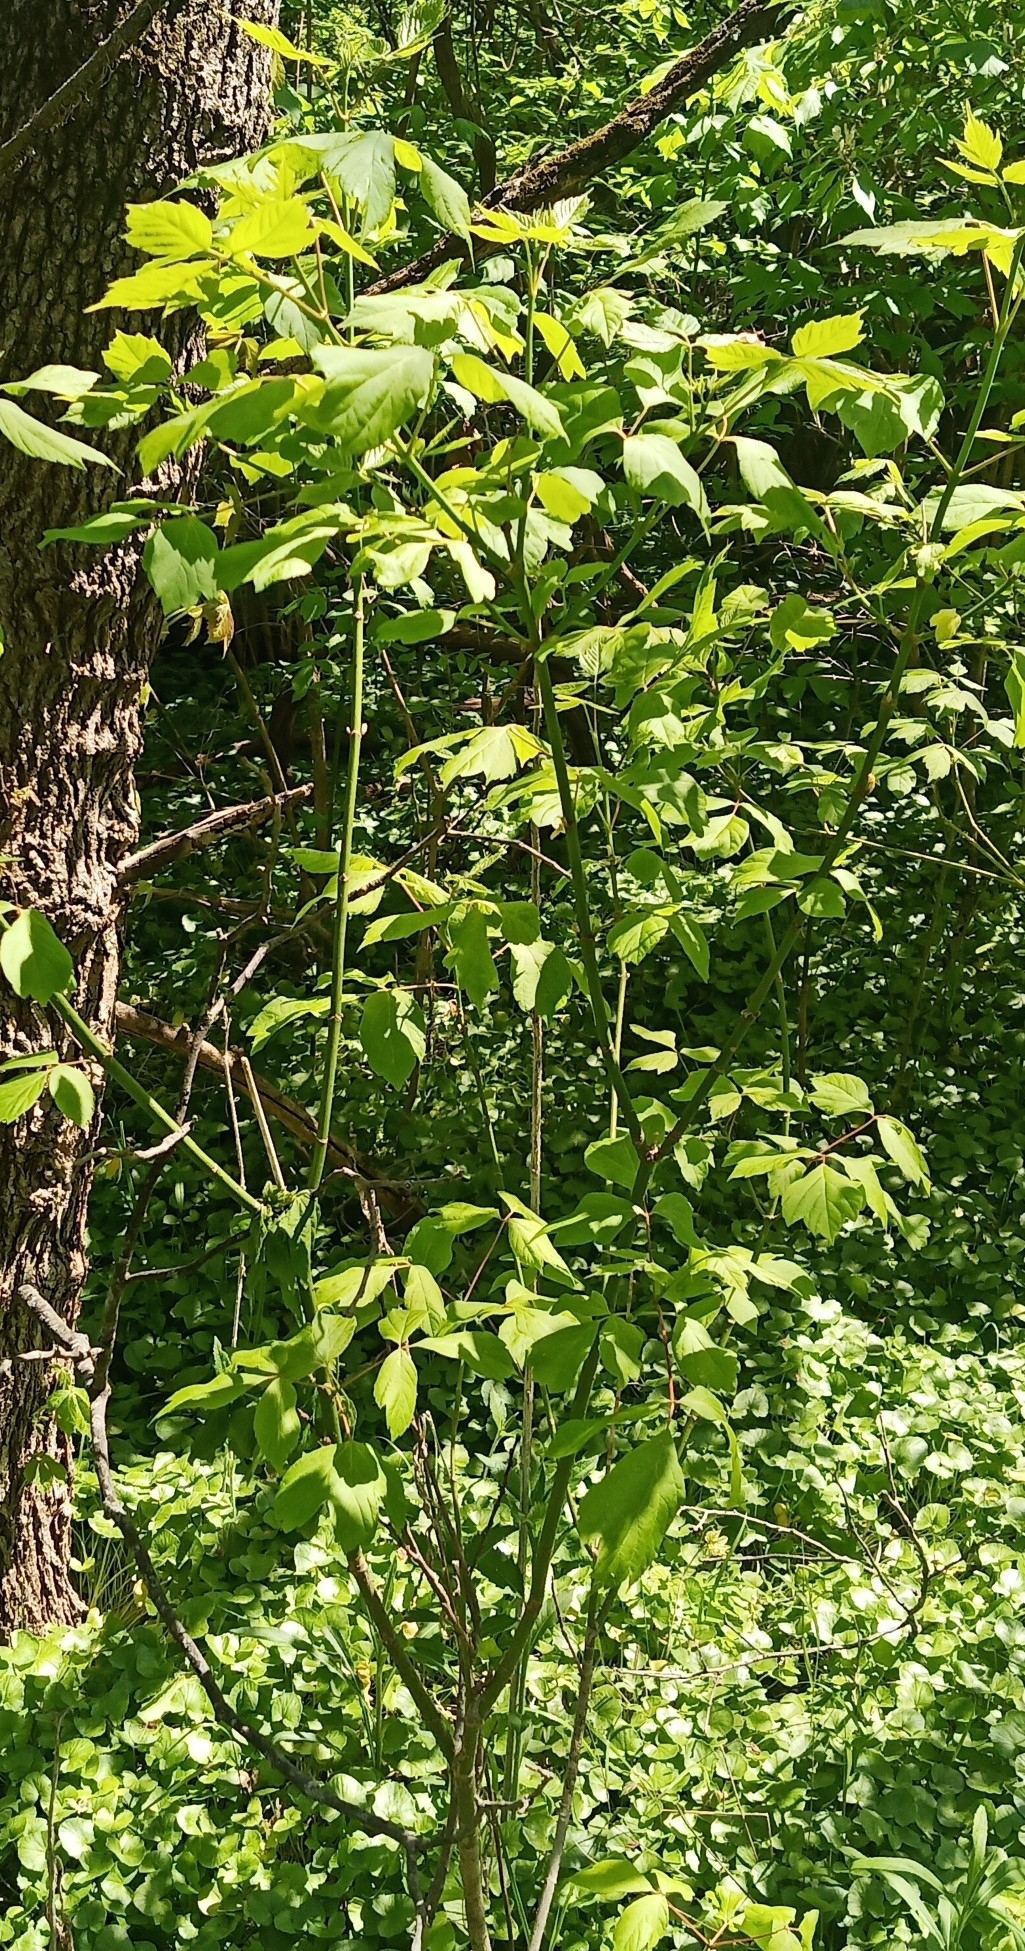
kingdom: Plantae
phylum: Tracheophyta
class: Magnoliopsida
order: Sapindales
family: Sapindaceae
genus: Acer
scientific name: Acer negundo
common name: Ashleaf maple
